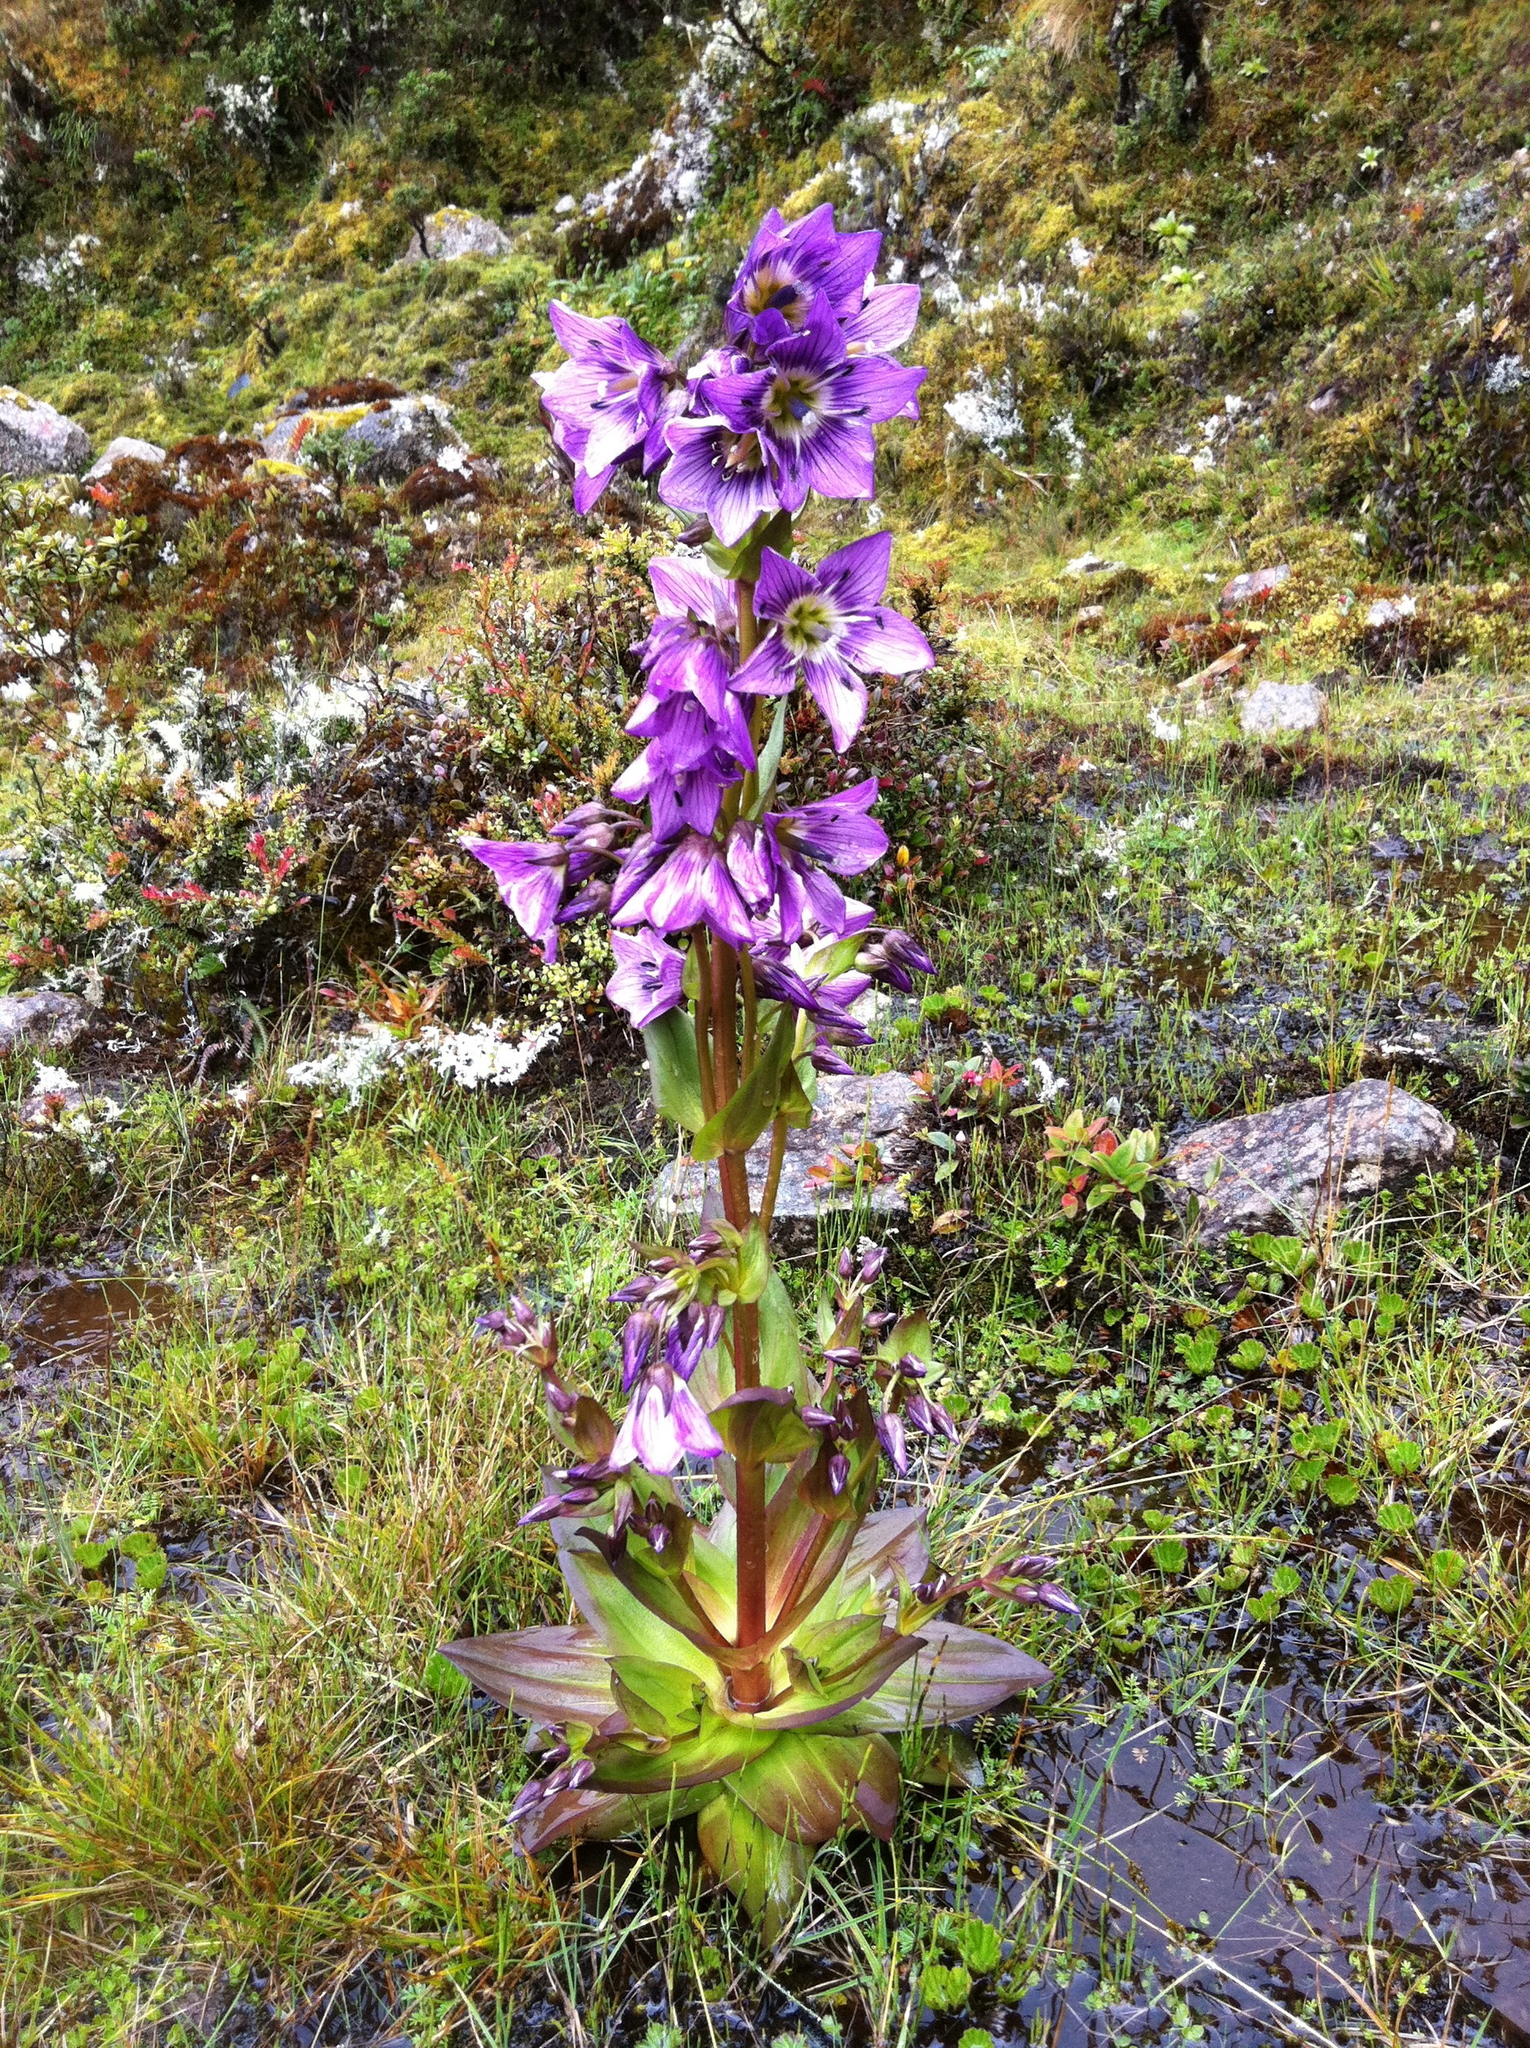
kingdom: Plantae
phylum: Tracheophyta
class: Magnoliopsida
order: Gentianales
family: Gentianaceae
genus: Gentianella
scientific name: Gentianella profusa
